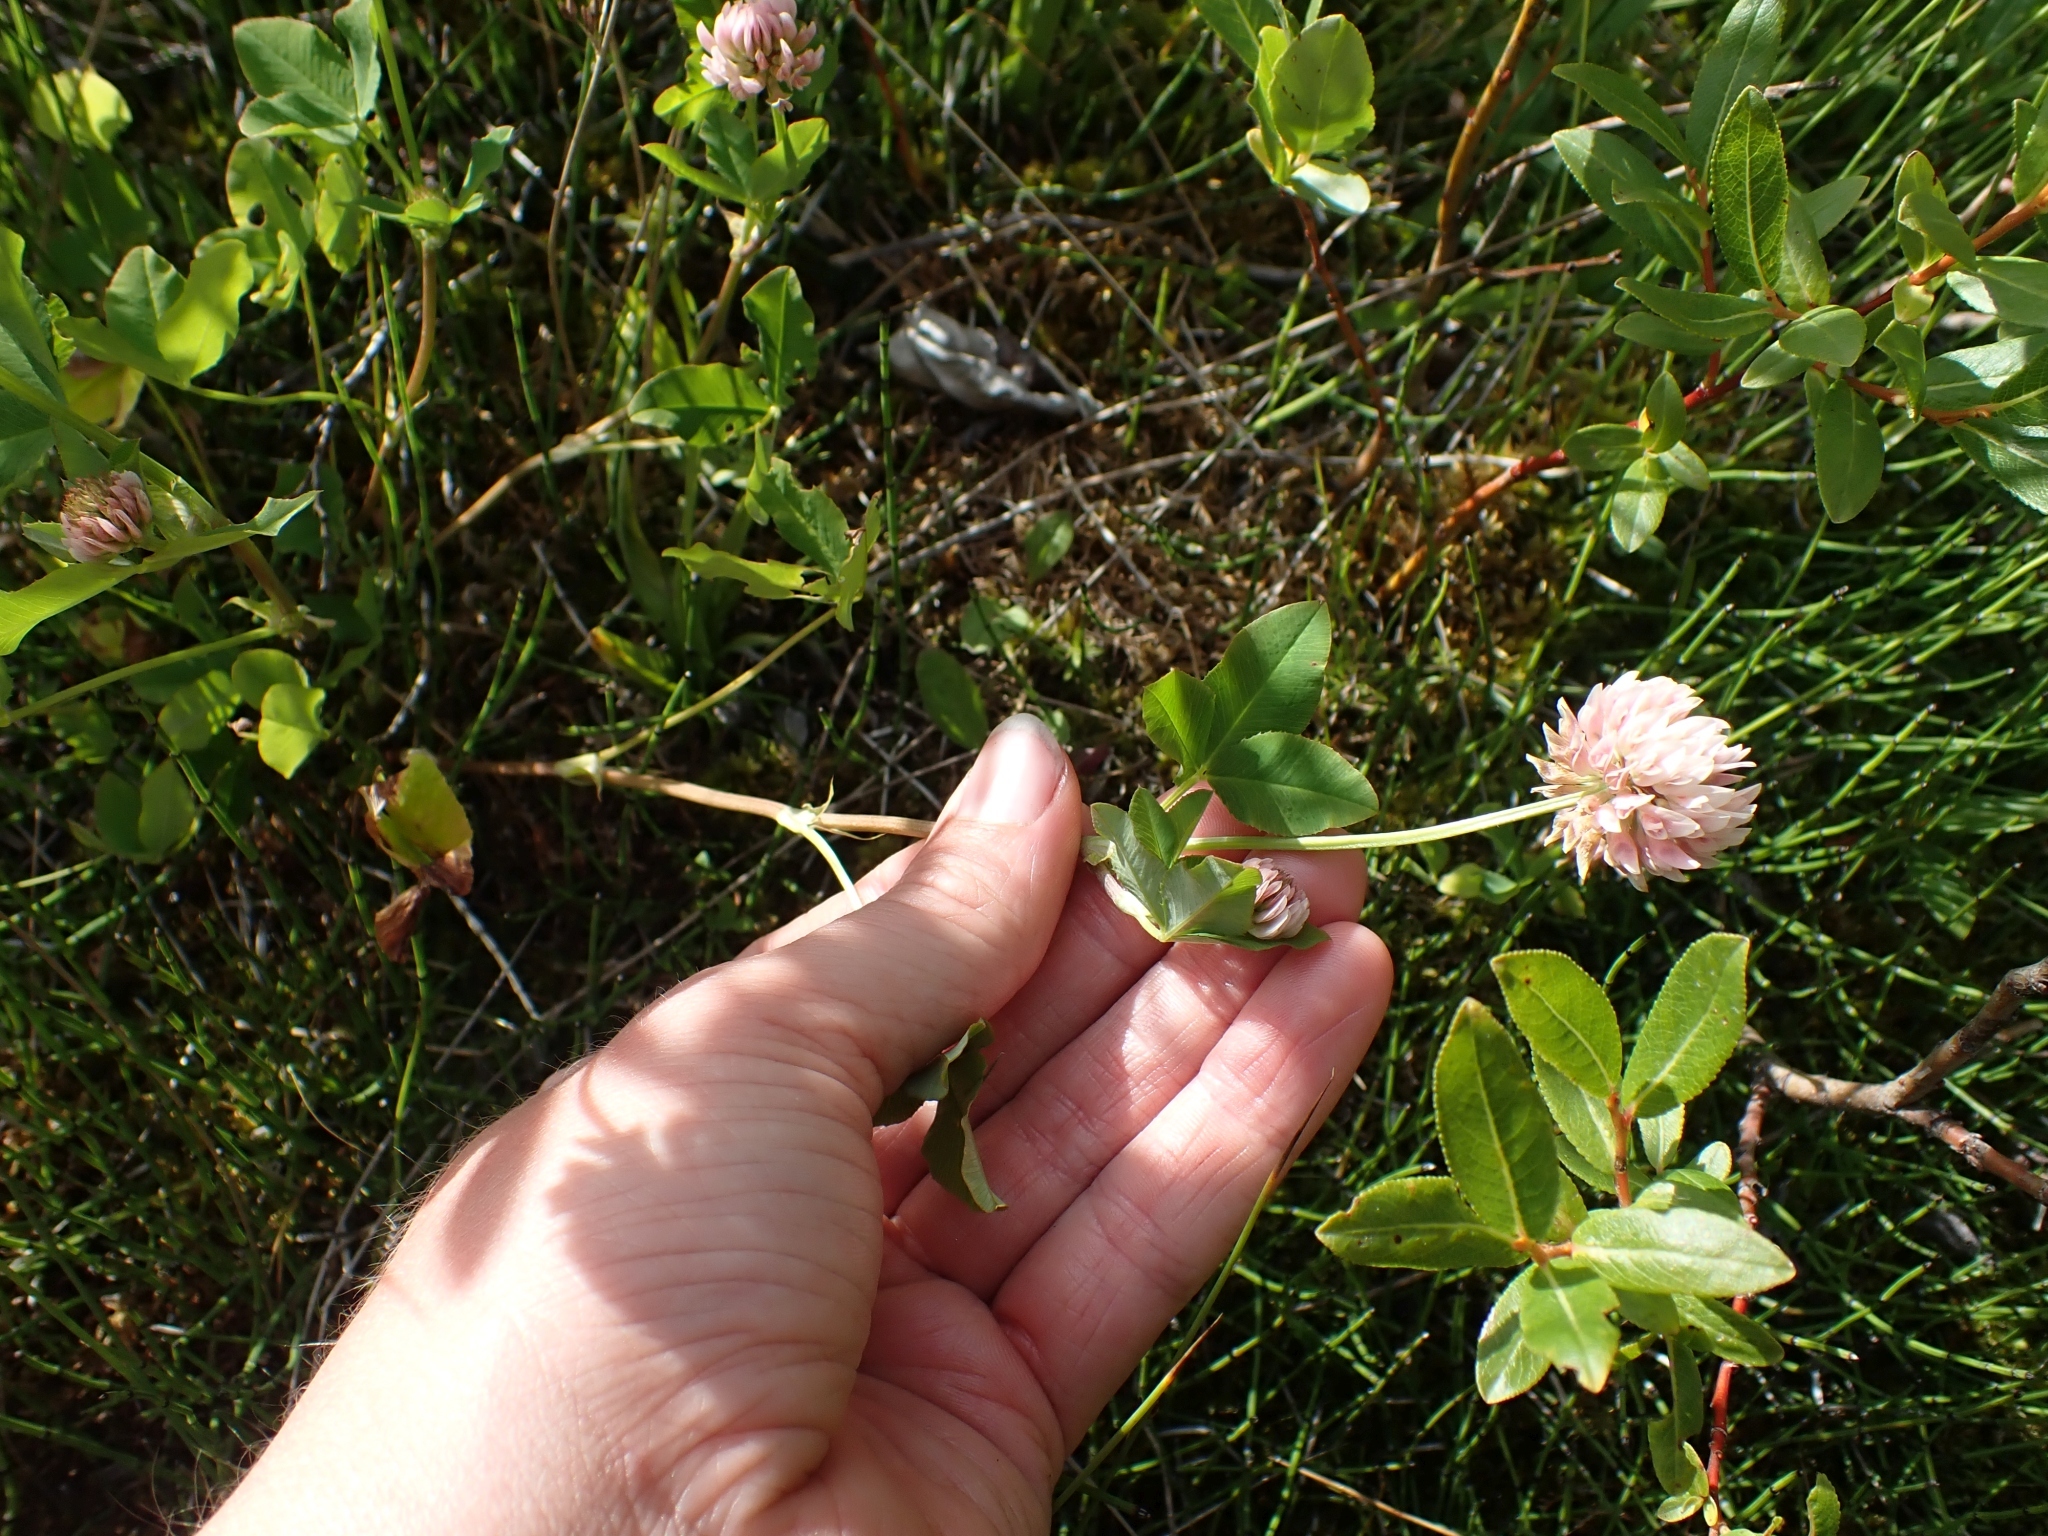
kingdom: Plantae
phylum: Tracheophyta
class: Magnoliopsida
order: Fabales
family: Fabaceae
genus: Trifolium
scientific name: Trifolium hybridum
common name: Alsike clover
